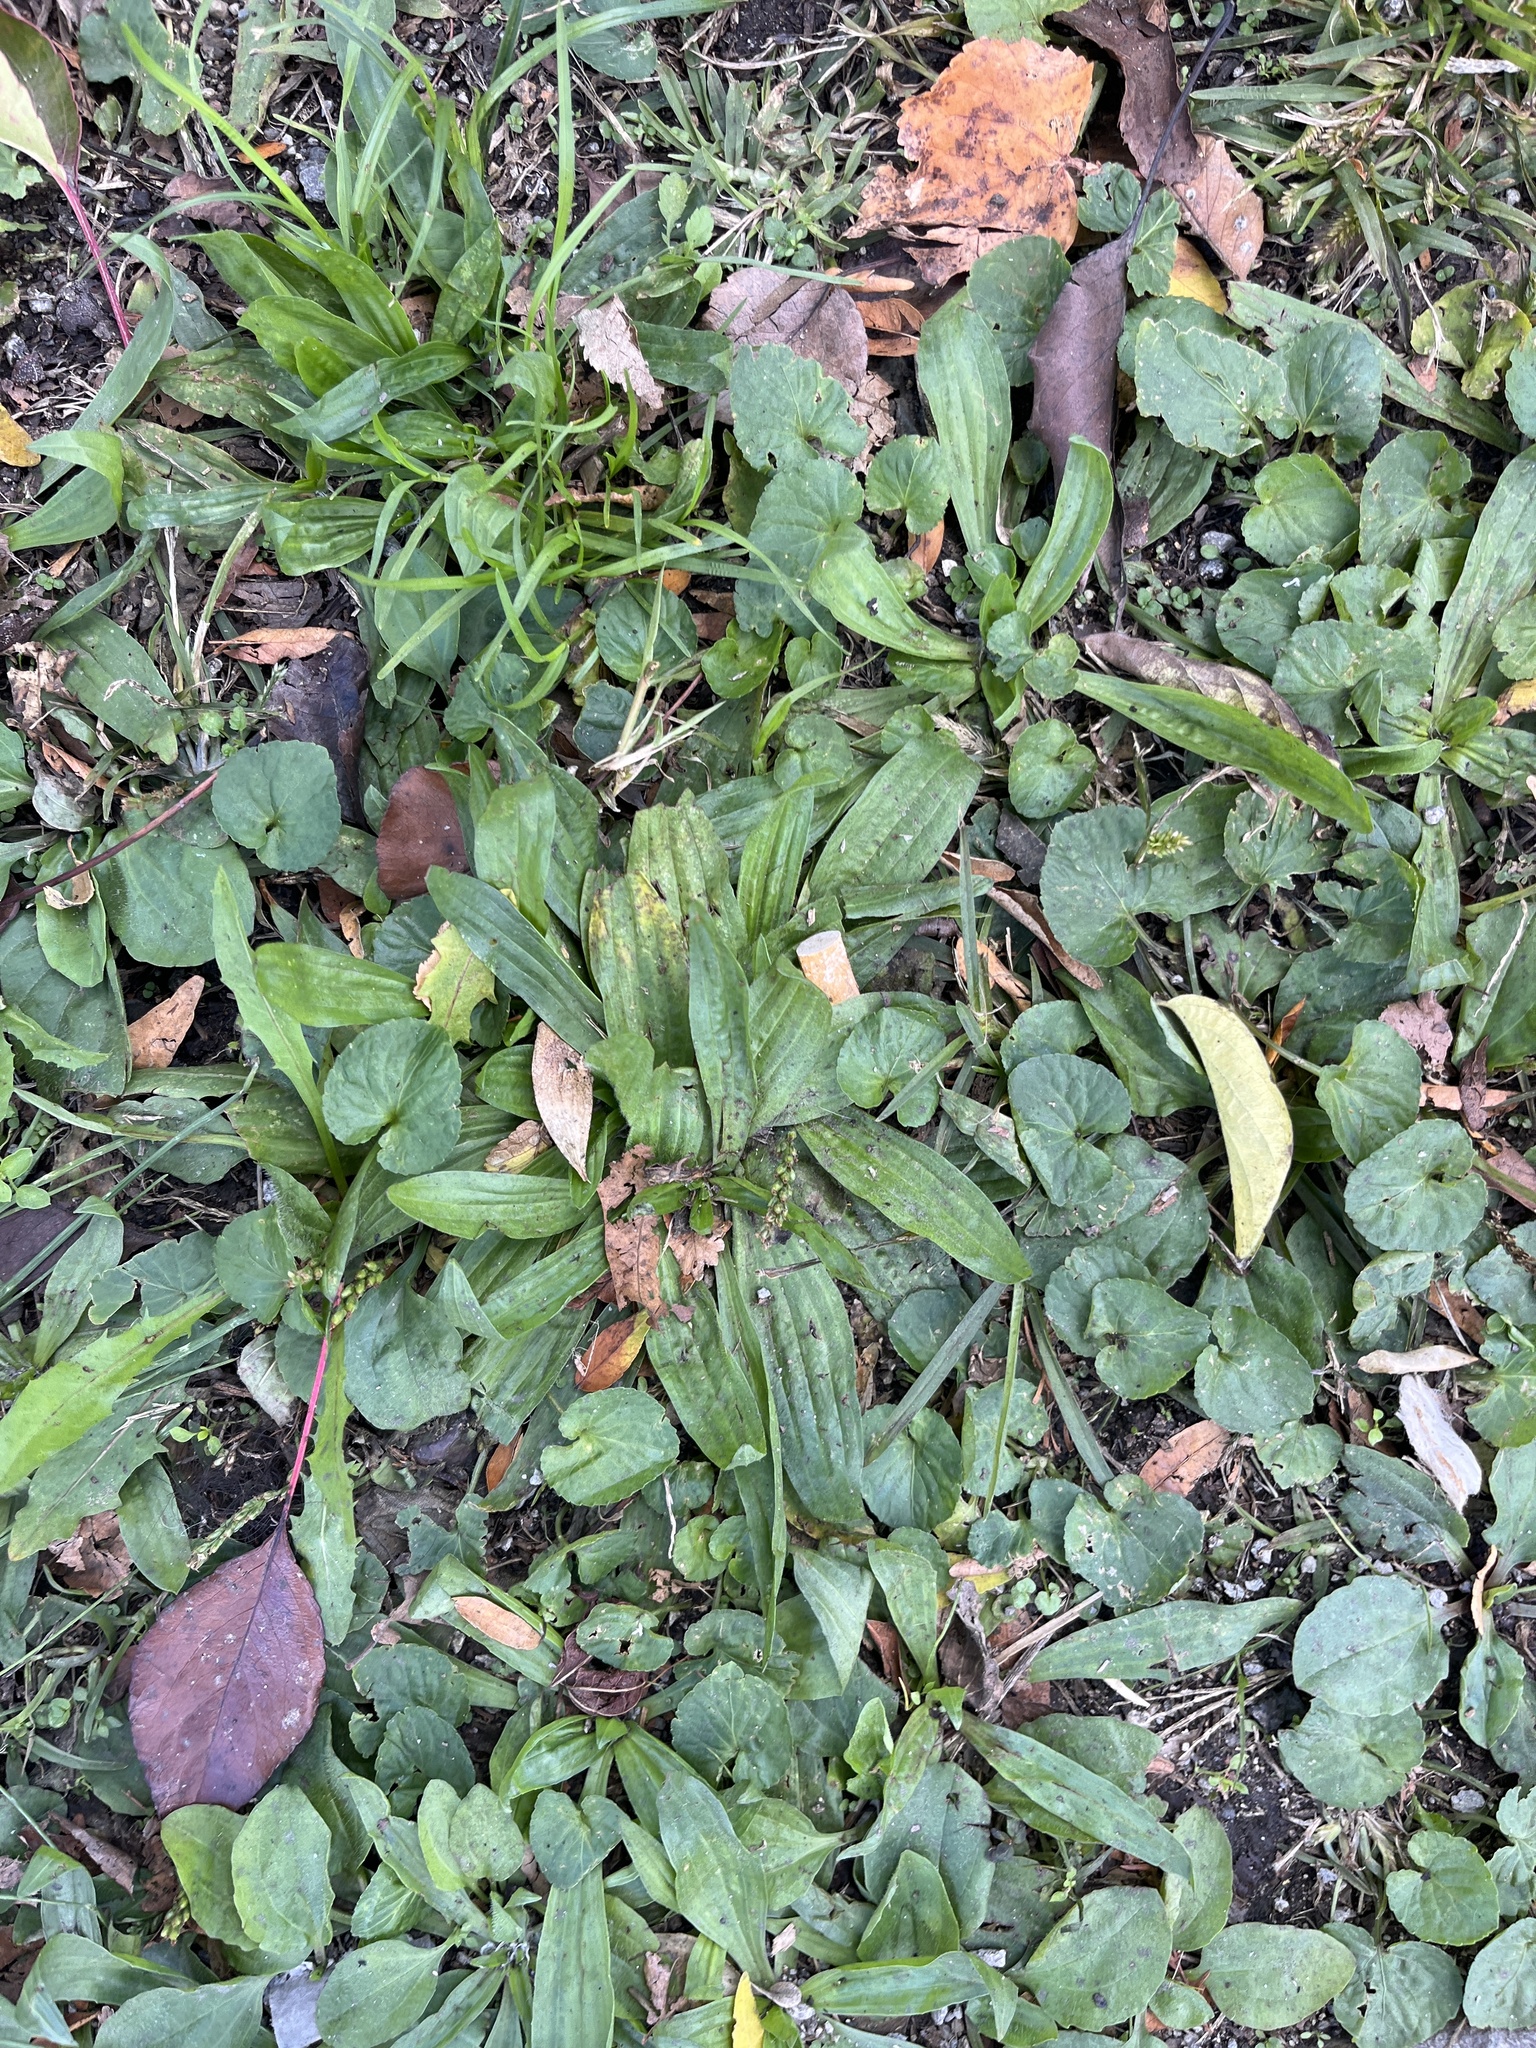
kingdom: Plantae
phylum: Tracheophyta
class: Magnoliopsida
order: Lamiales
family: Plantaginaceae
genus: Plantago
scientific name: Plantago lanceolata
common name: Ribwort plantain
